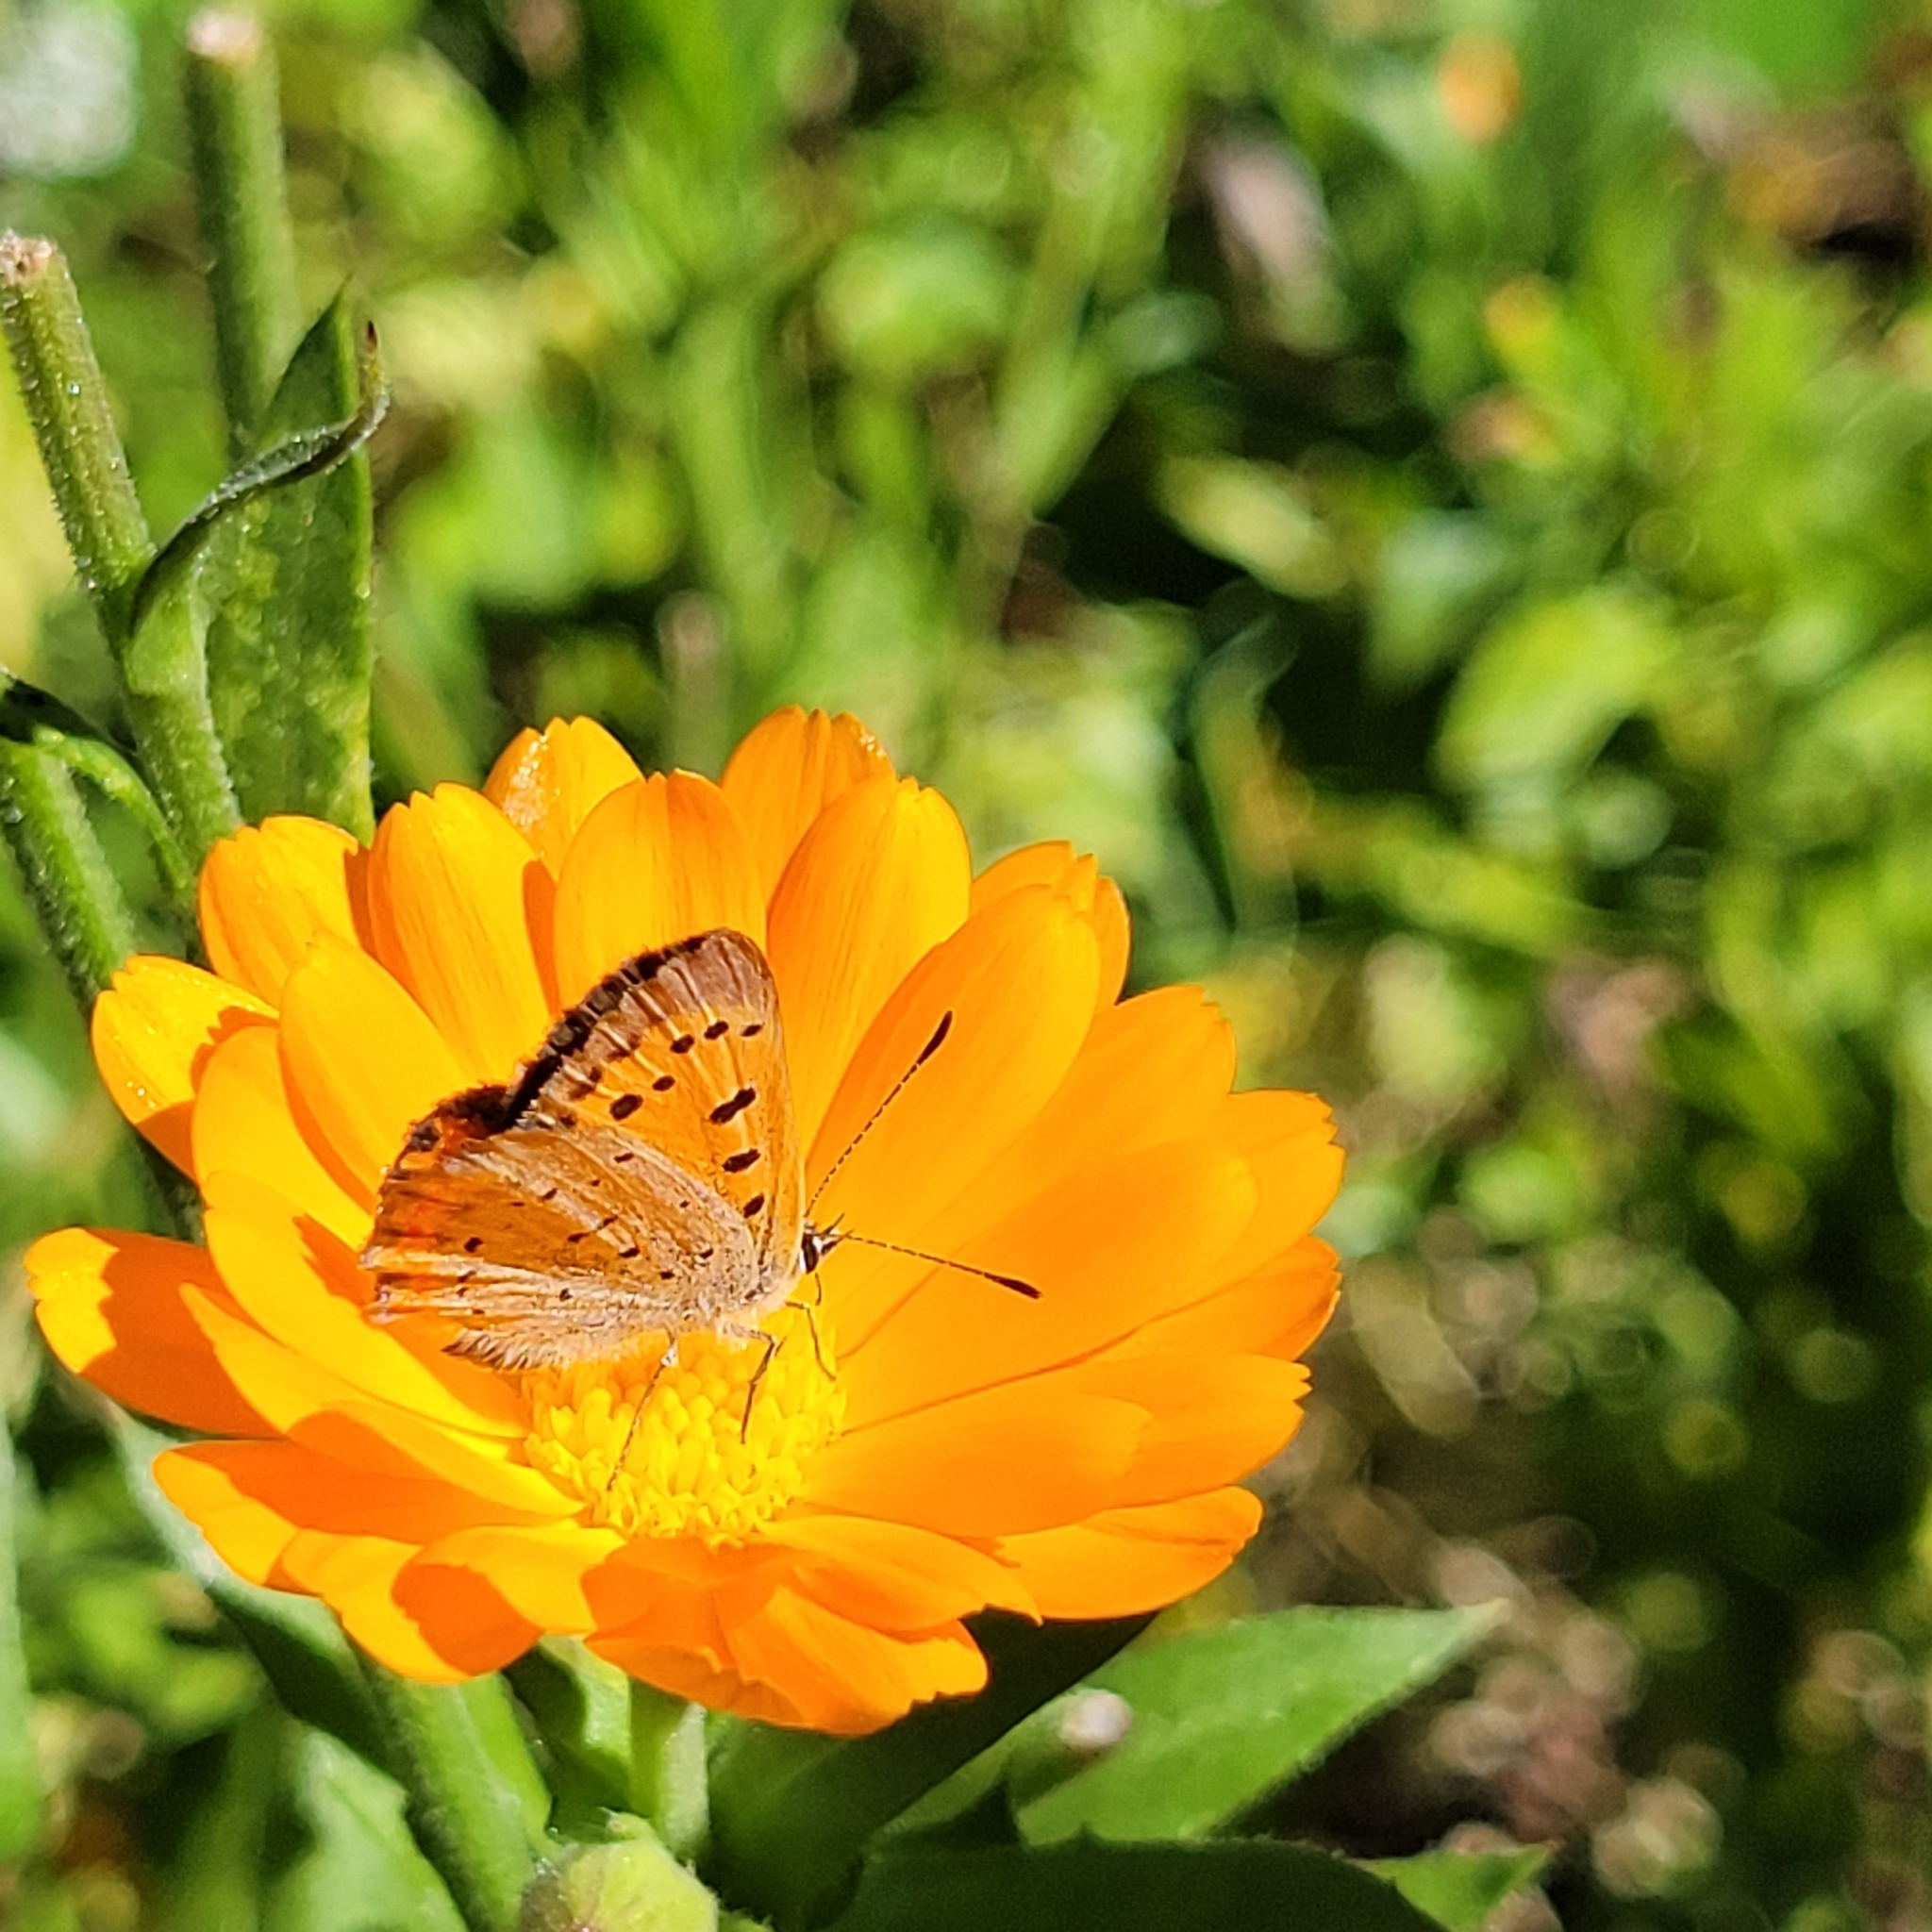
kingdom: Animalia
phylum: Arthropoda
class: Insecta
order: Lepidoptera
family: Lycaenidae
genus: Lycaena
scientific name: Lycaena hypophlaeas
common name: American copper
